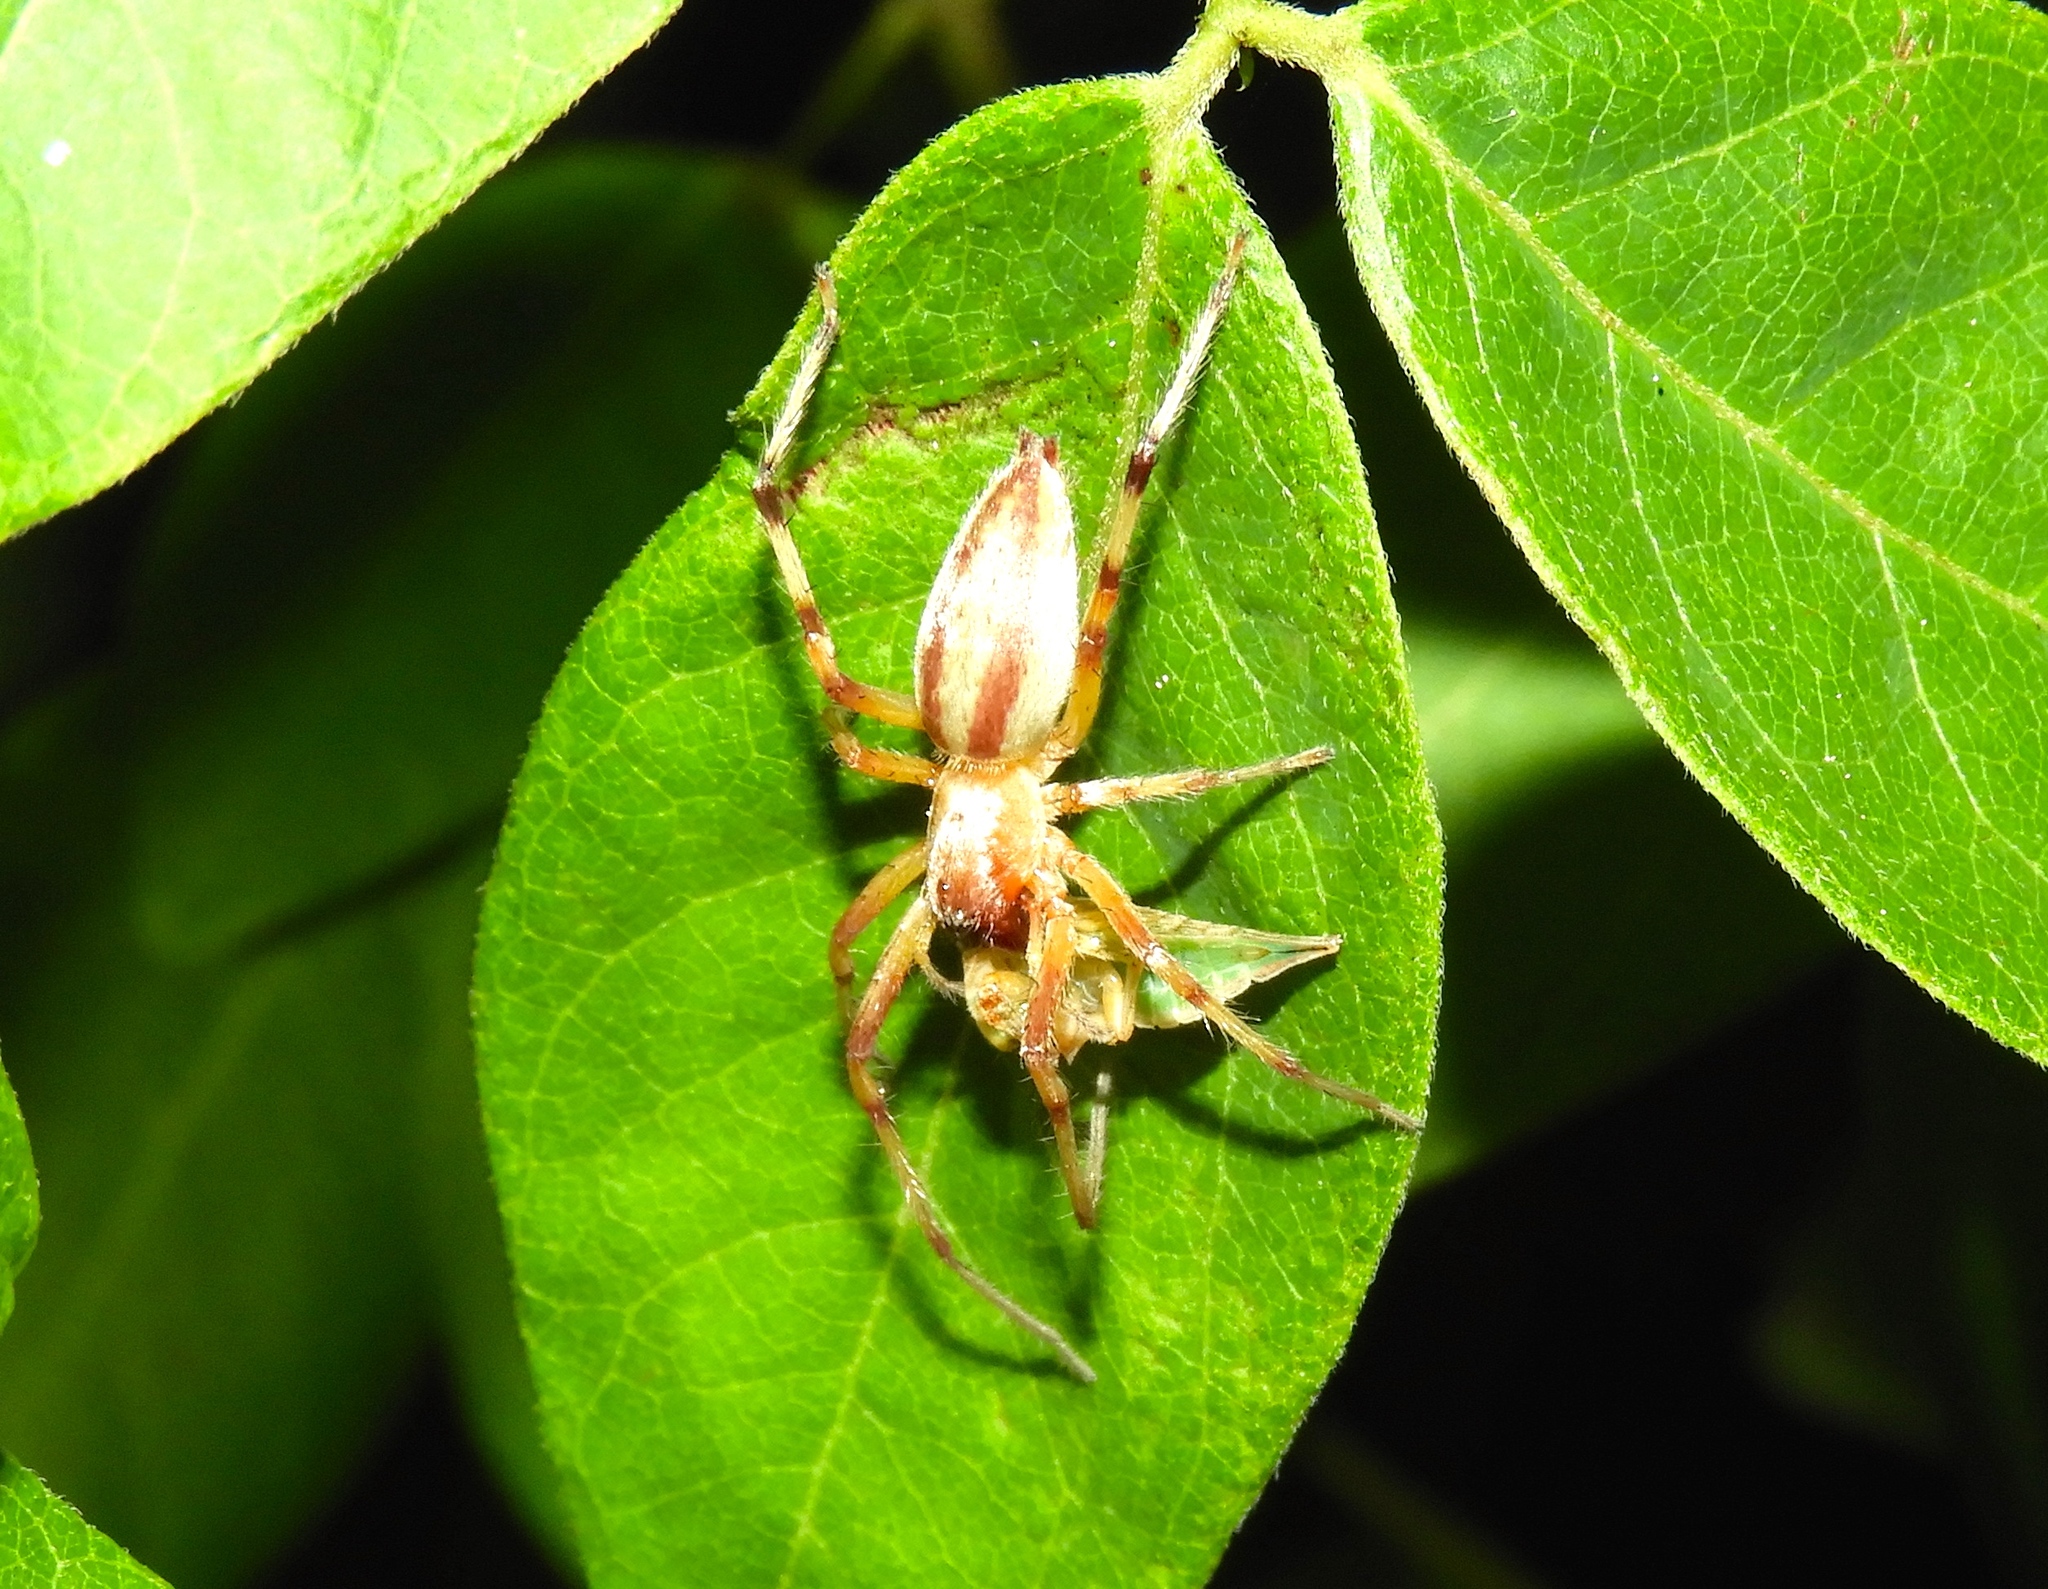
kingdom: Animalia
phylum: Arthropoda
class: Arachnida
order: Araneae
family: Anyphaenidae
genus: Hibana
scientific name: Hibana
